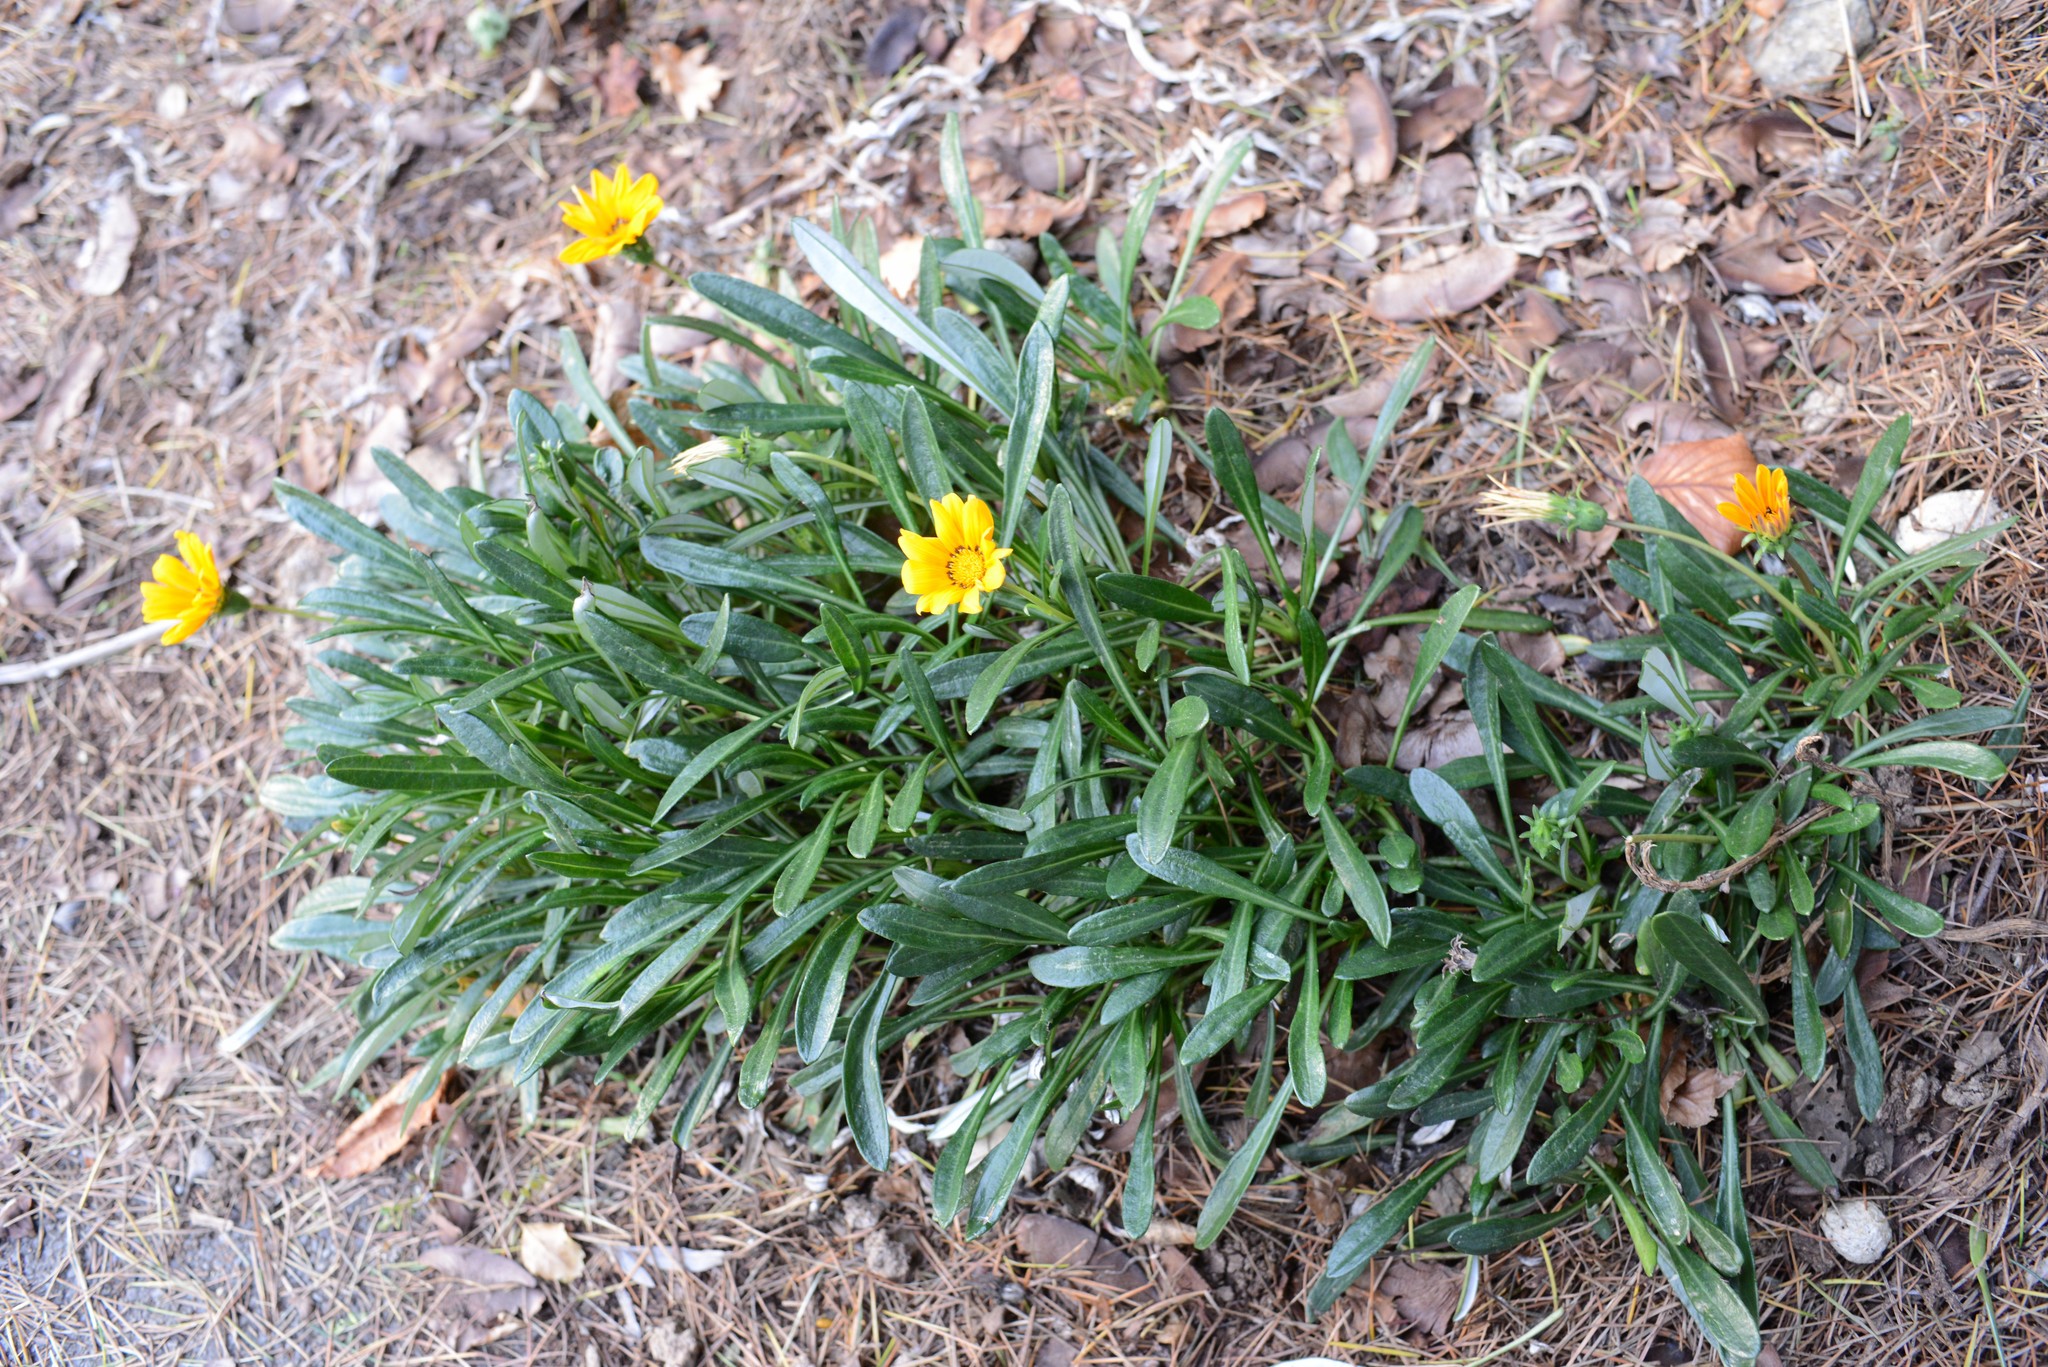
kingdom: Plantae
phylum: Tracheophyta
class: Magnoliopsida
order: Asterales
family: Asteraceae
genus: Gazania
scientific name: Gazania rigens
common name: Treasureflower
